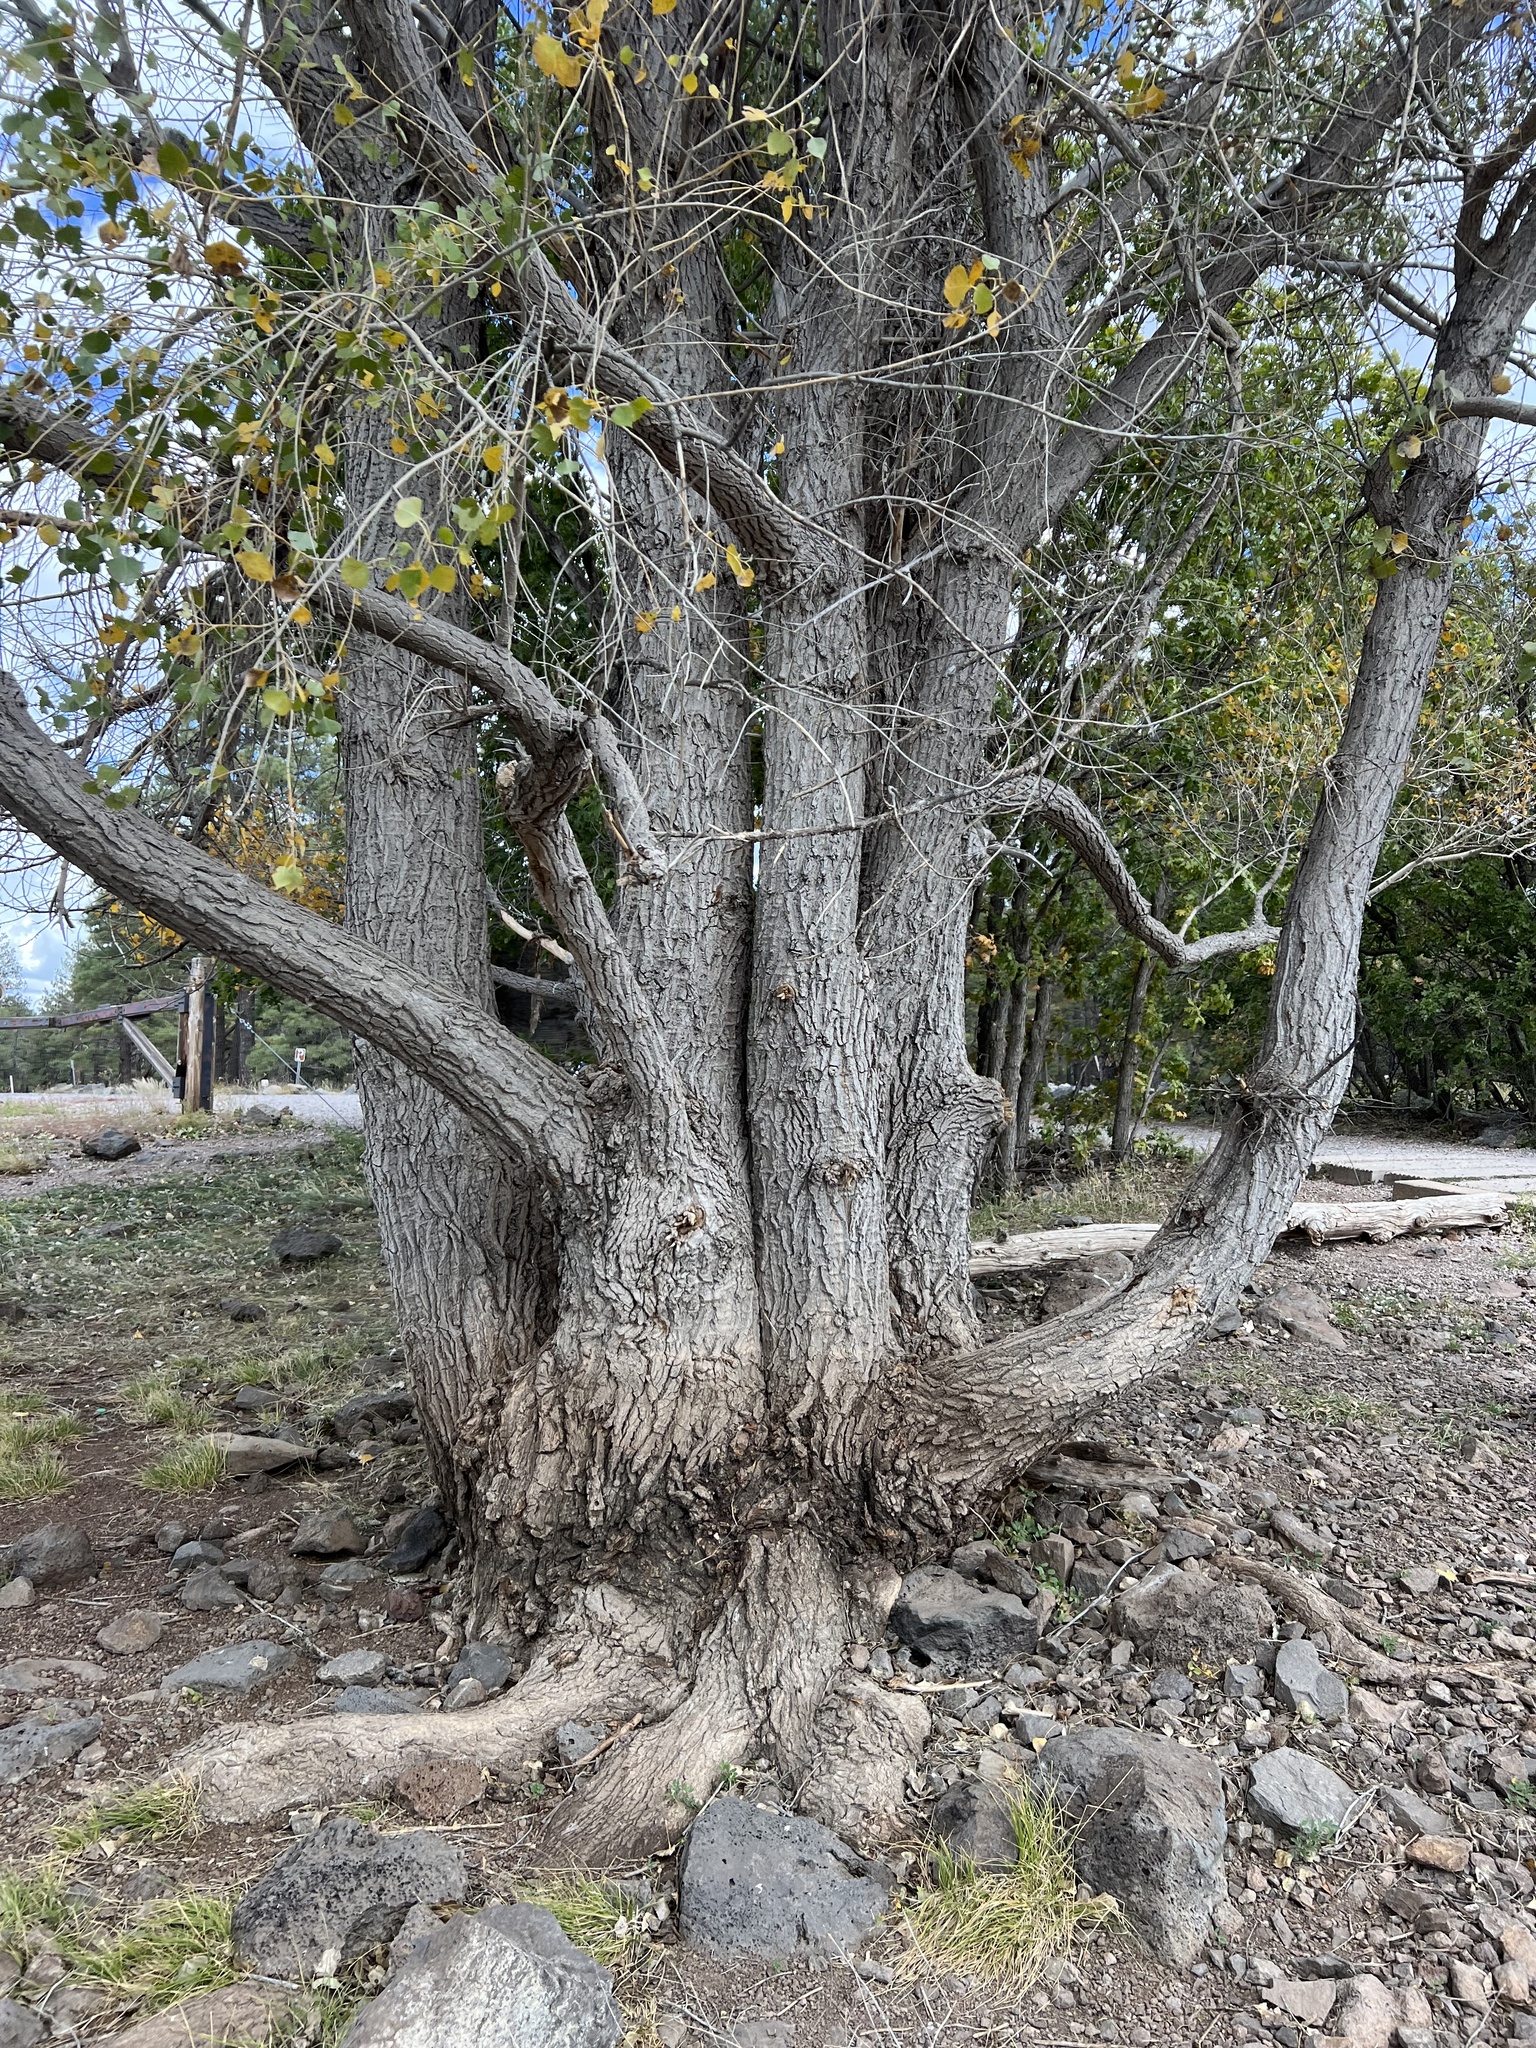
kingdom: Plantae
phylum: Tracheophyta
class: Magnoliopsida
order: Malpighiales
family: Salicaceae
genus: Populus
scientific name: Populus fremontii
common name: Fremont's cottonwood
